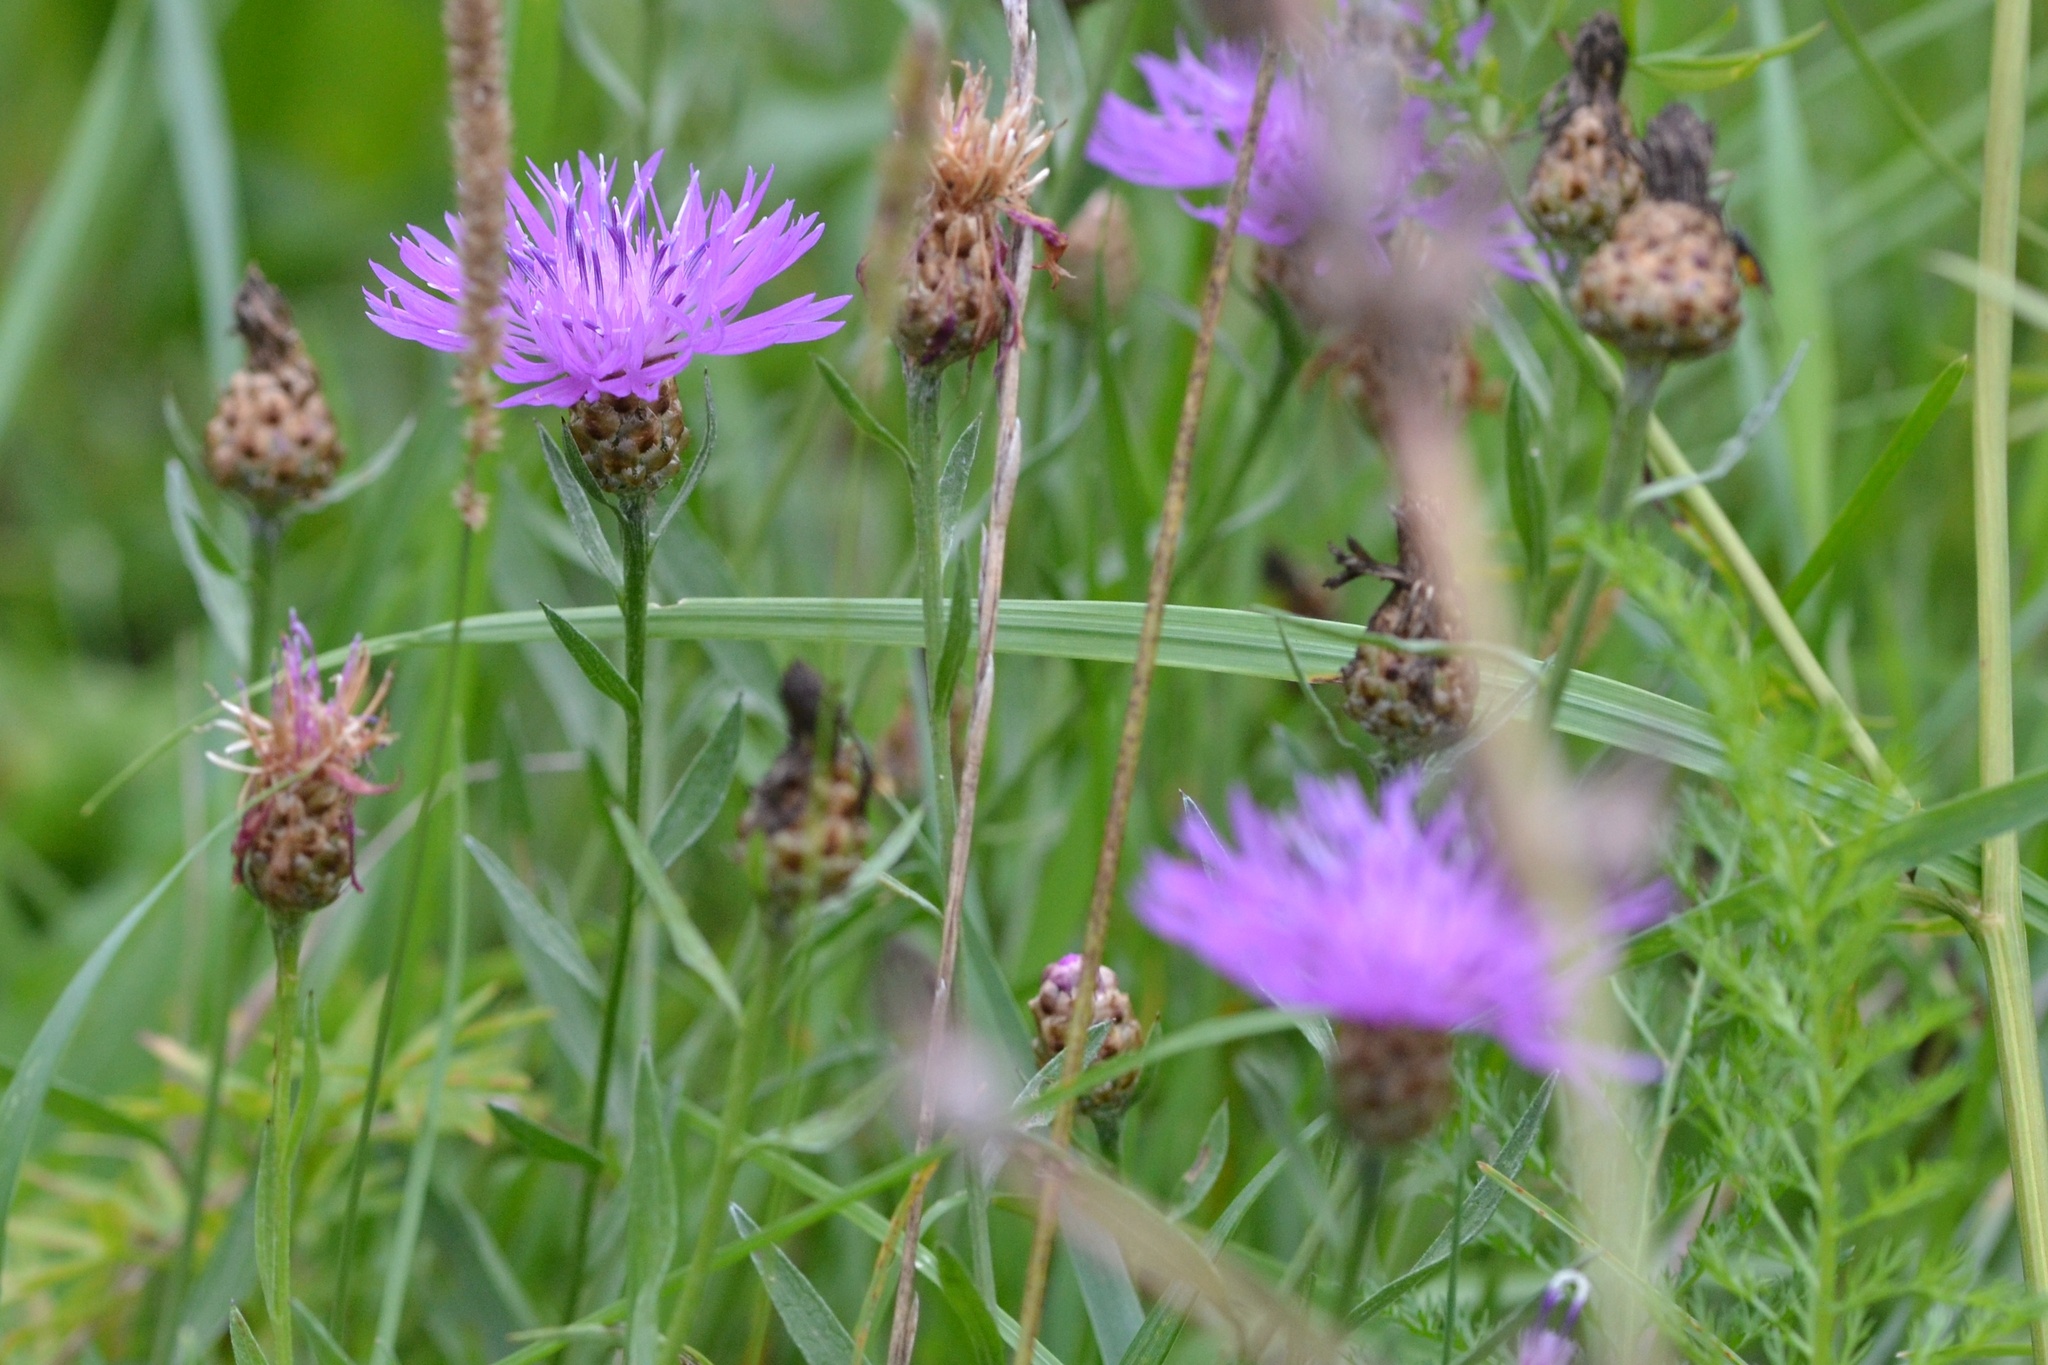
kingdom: Plantae
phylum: Tracheophyta
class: Magnoliopsida
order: Asterales
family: Asteraceae
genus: Centaurea
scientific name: Centaurea jacea
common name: Brown knapweed
